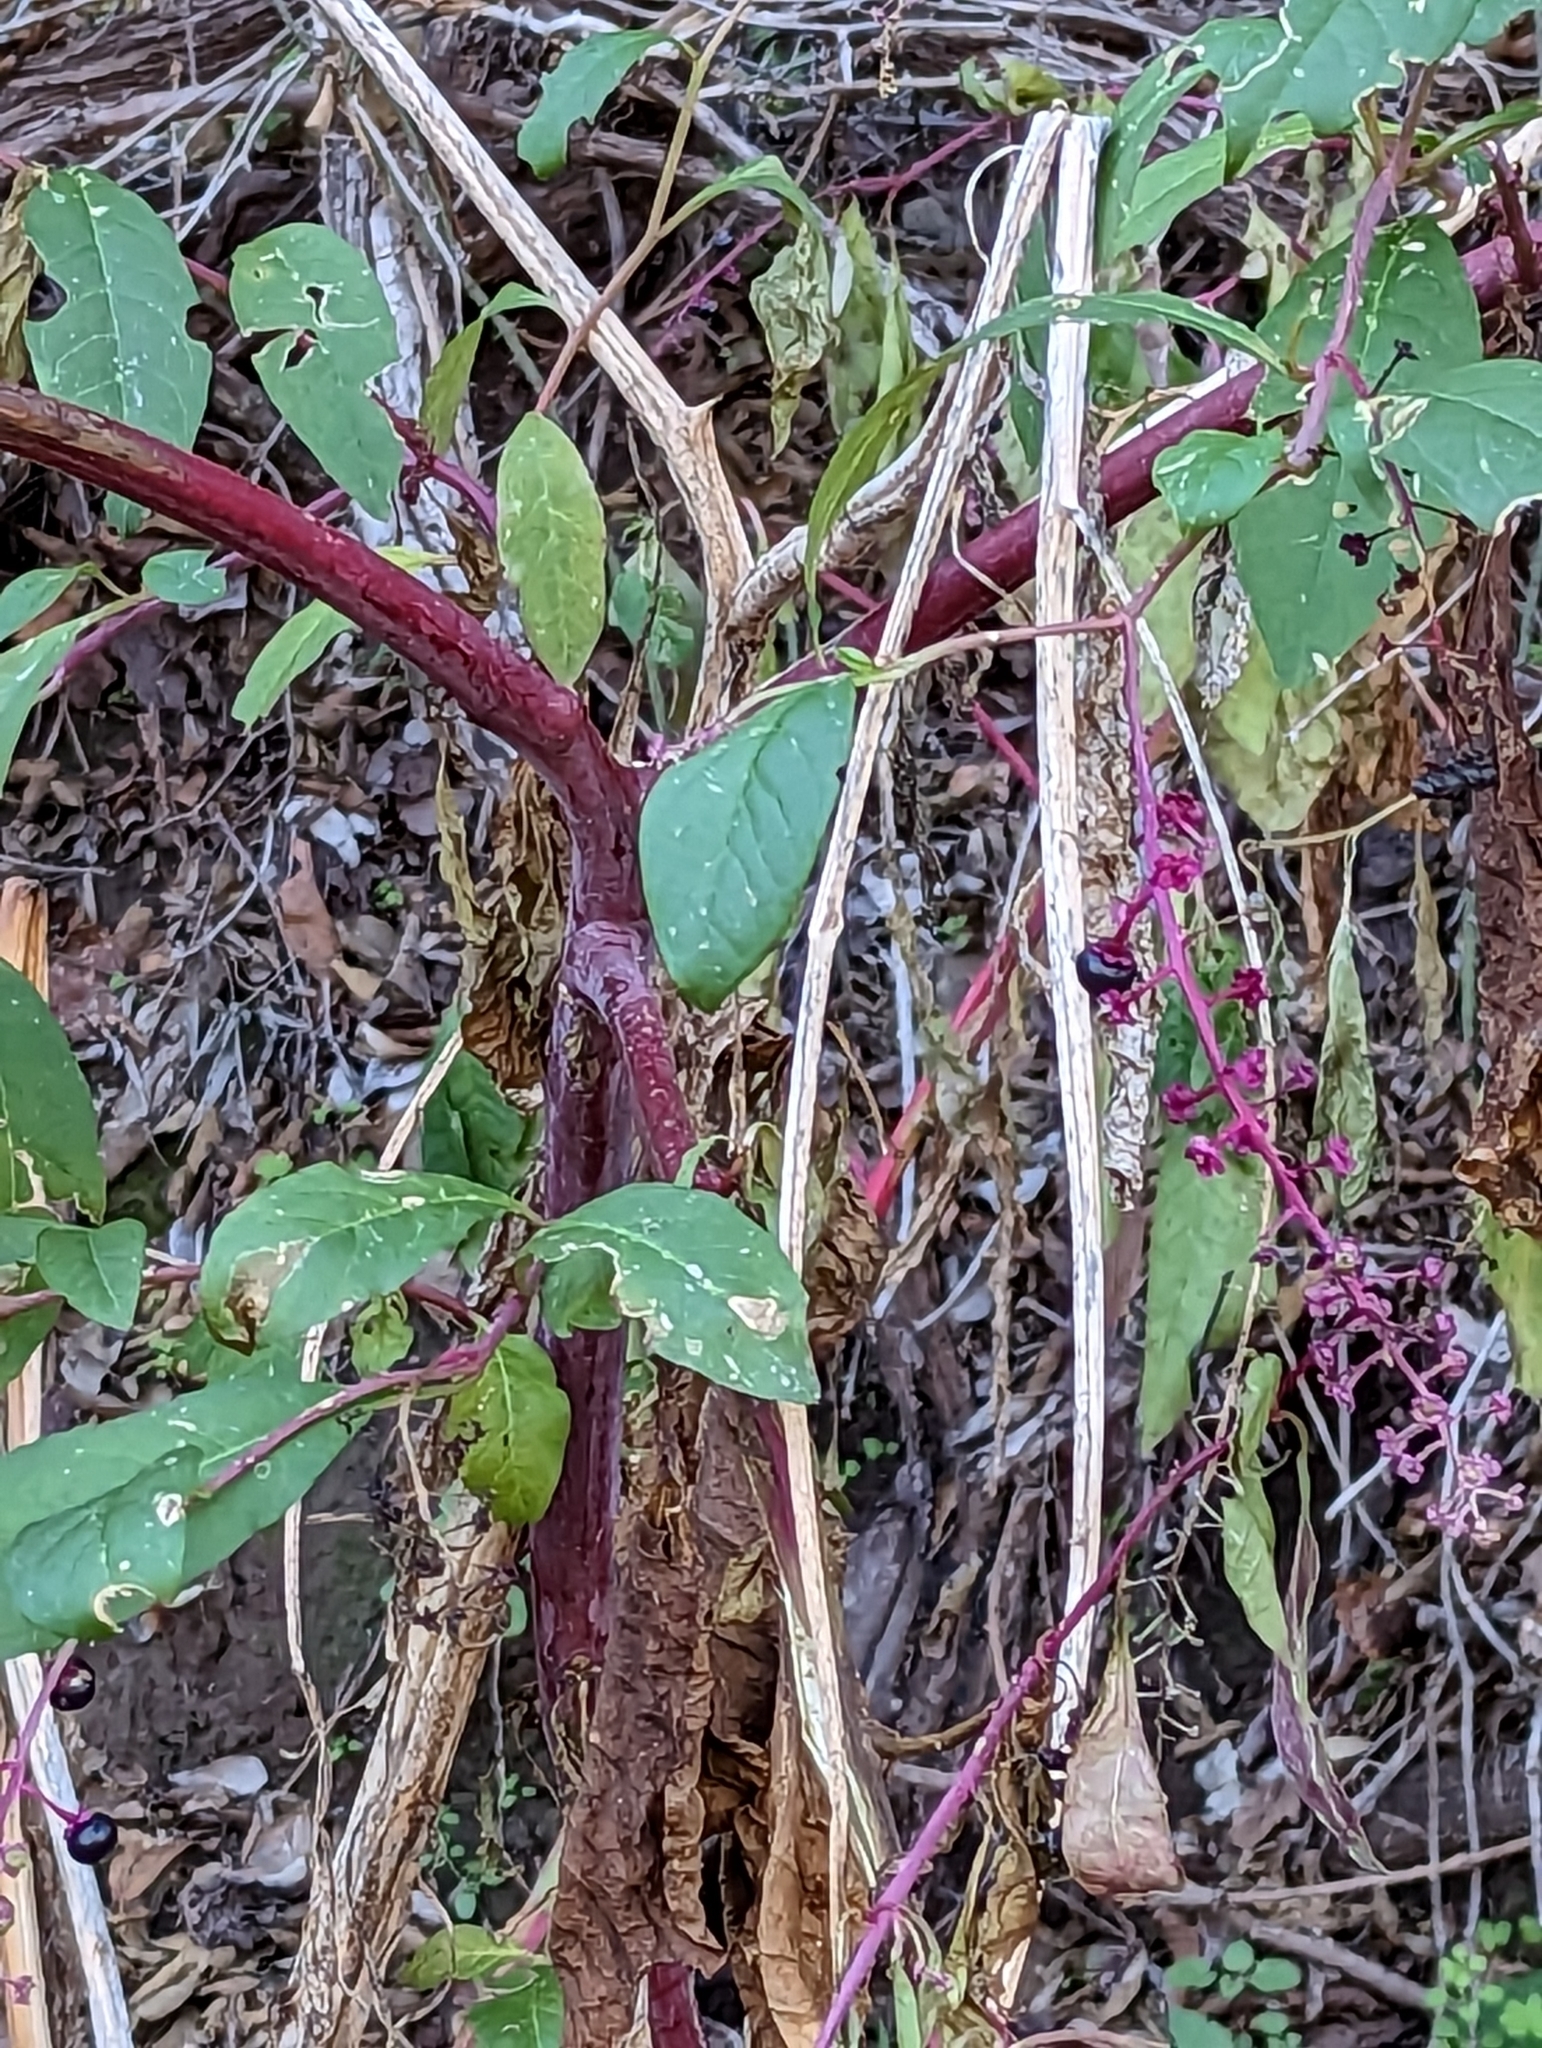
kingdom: Plantae
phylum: Tracheophyta
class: Magnoliopsida
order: Caryophyllales
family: Phytolaccaceae
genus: Phytolacca
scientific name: Phytolacca americana
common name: American pokeweed
